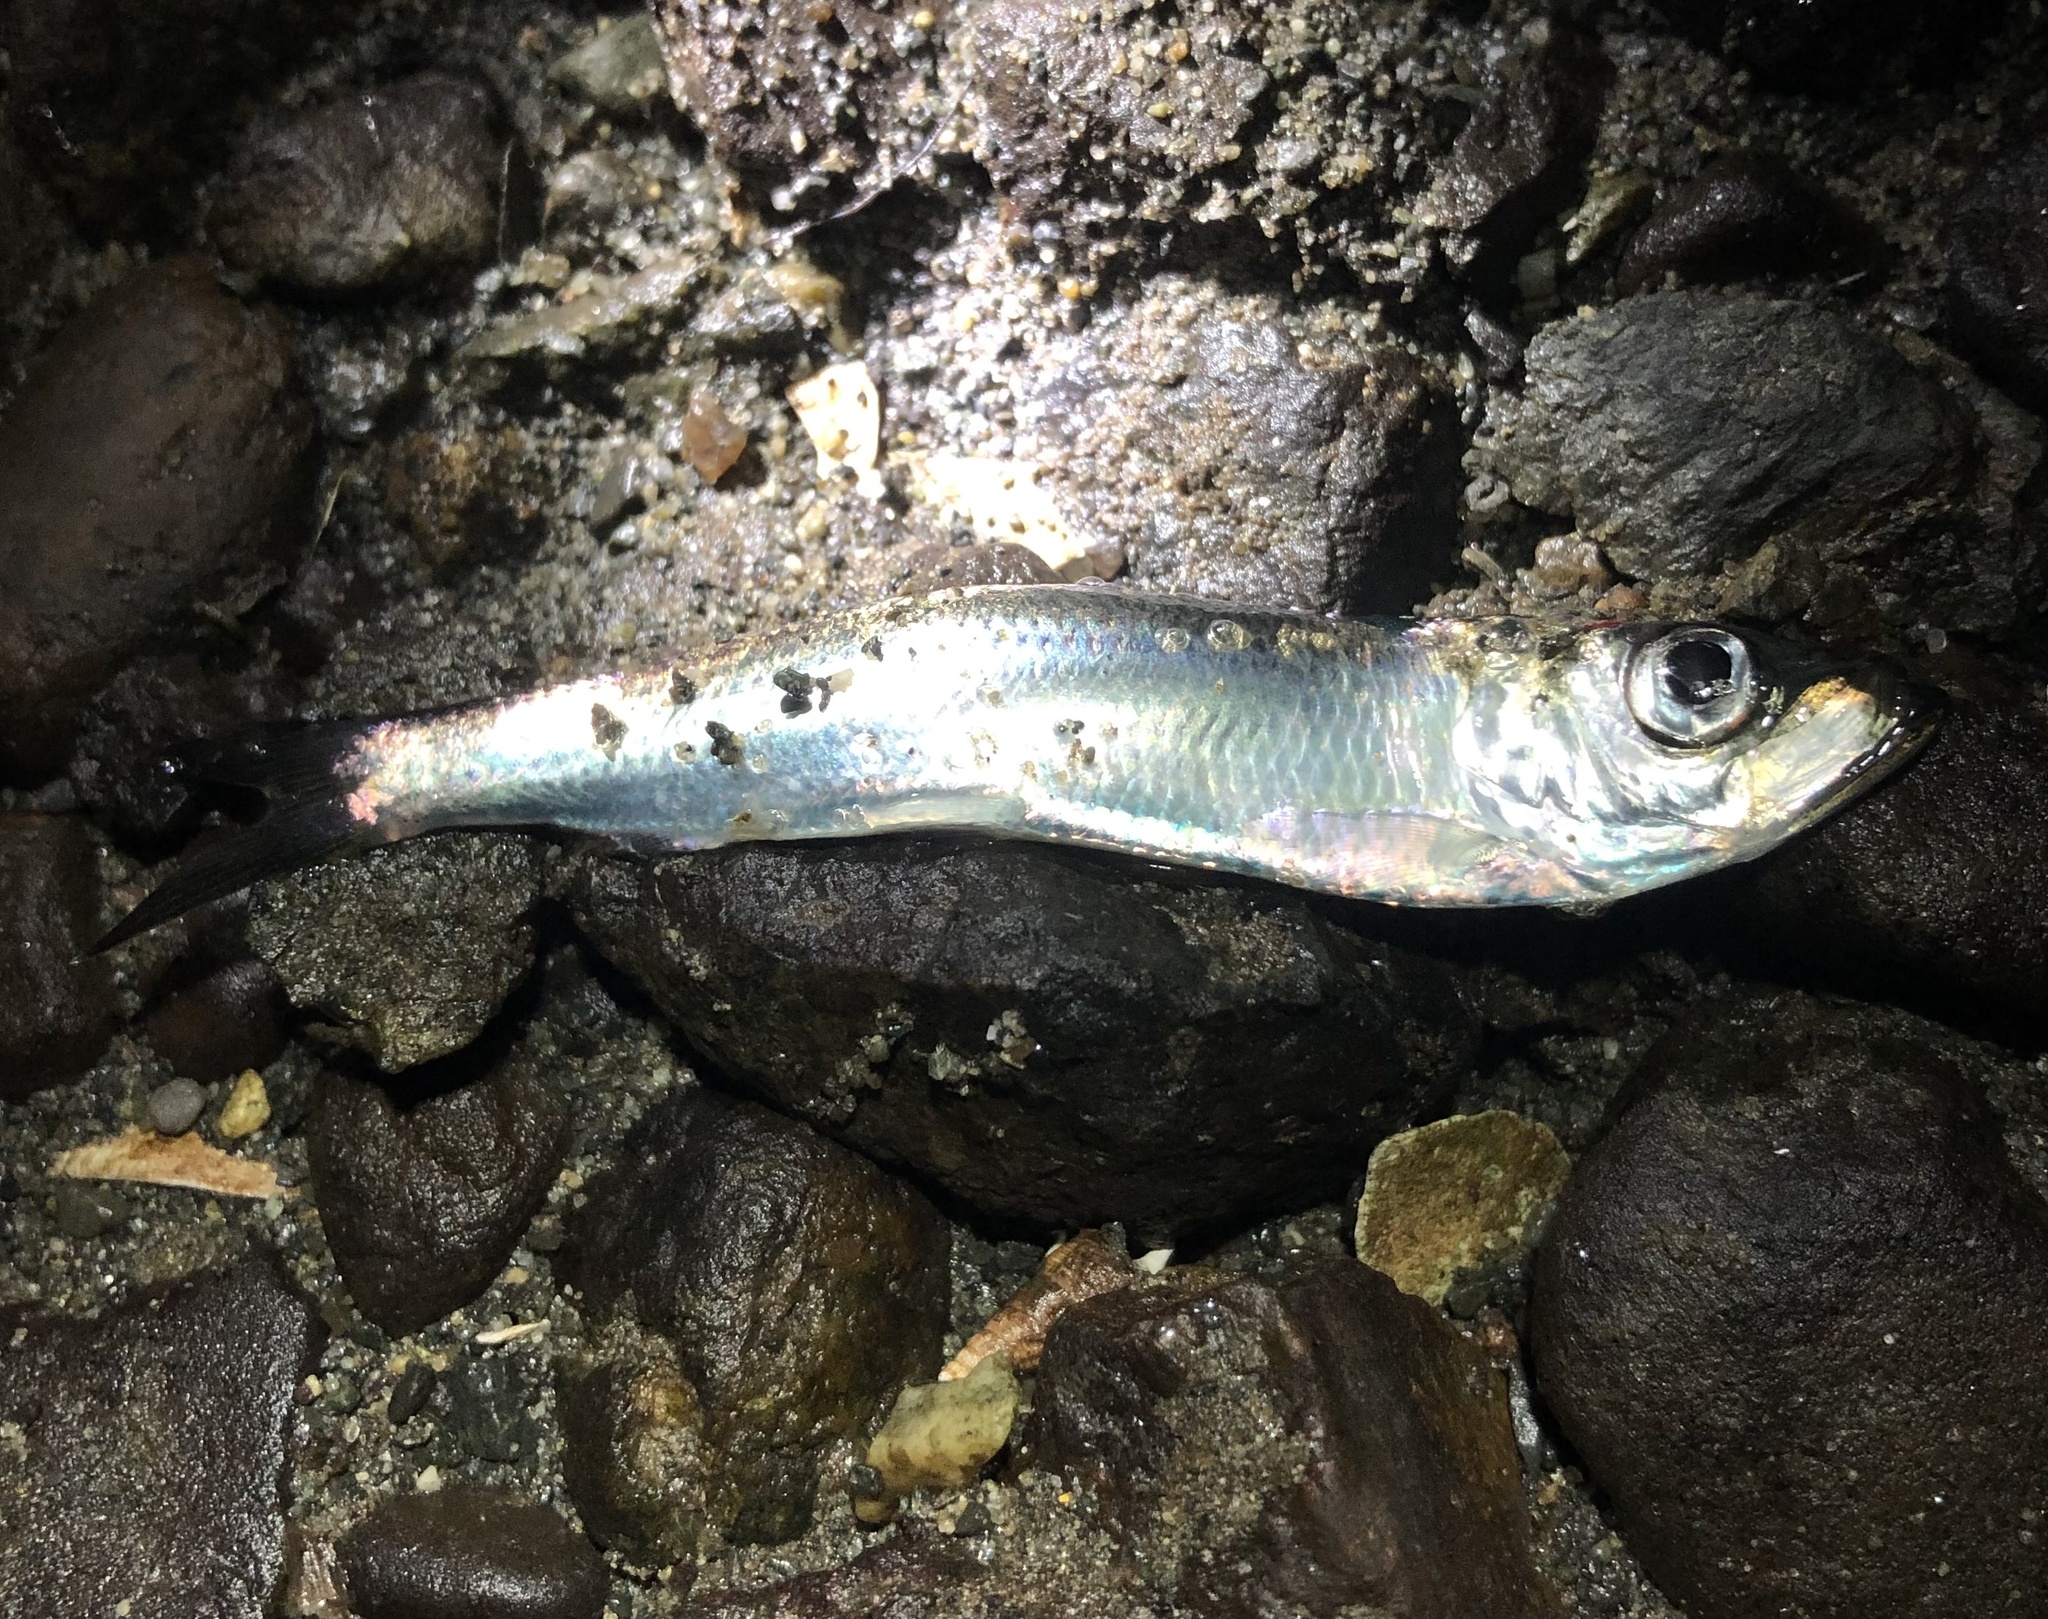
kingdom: Animalia
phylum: Chordata
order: Clupeiformes
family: Clupeidae
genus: Clupea
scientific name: Clupea pallasii
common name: Pacific herring
